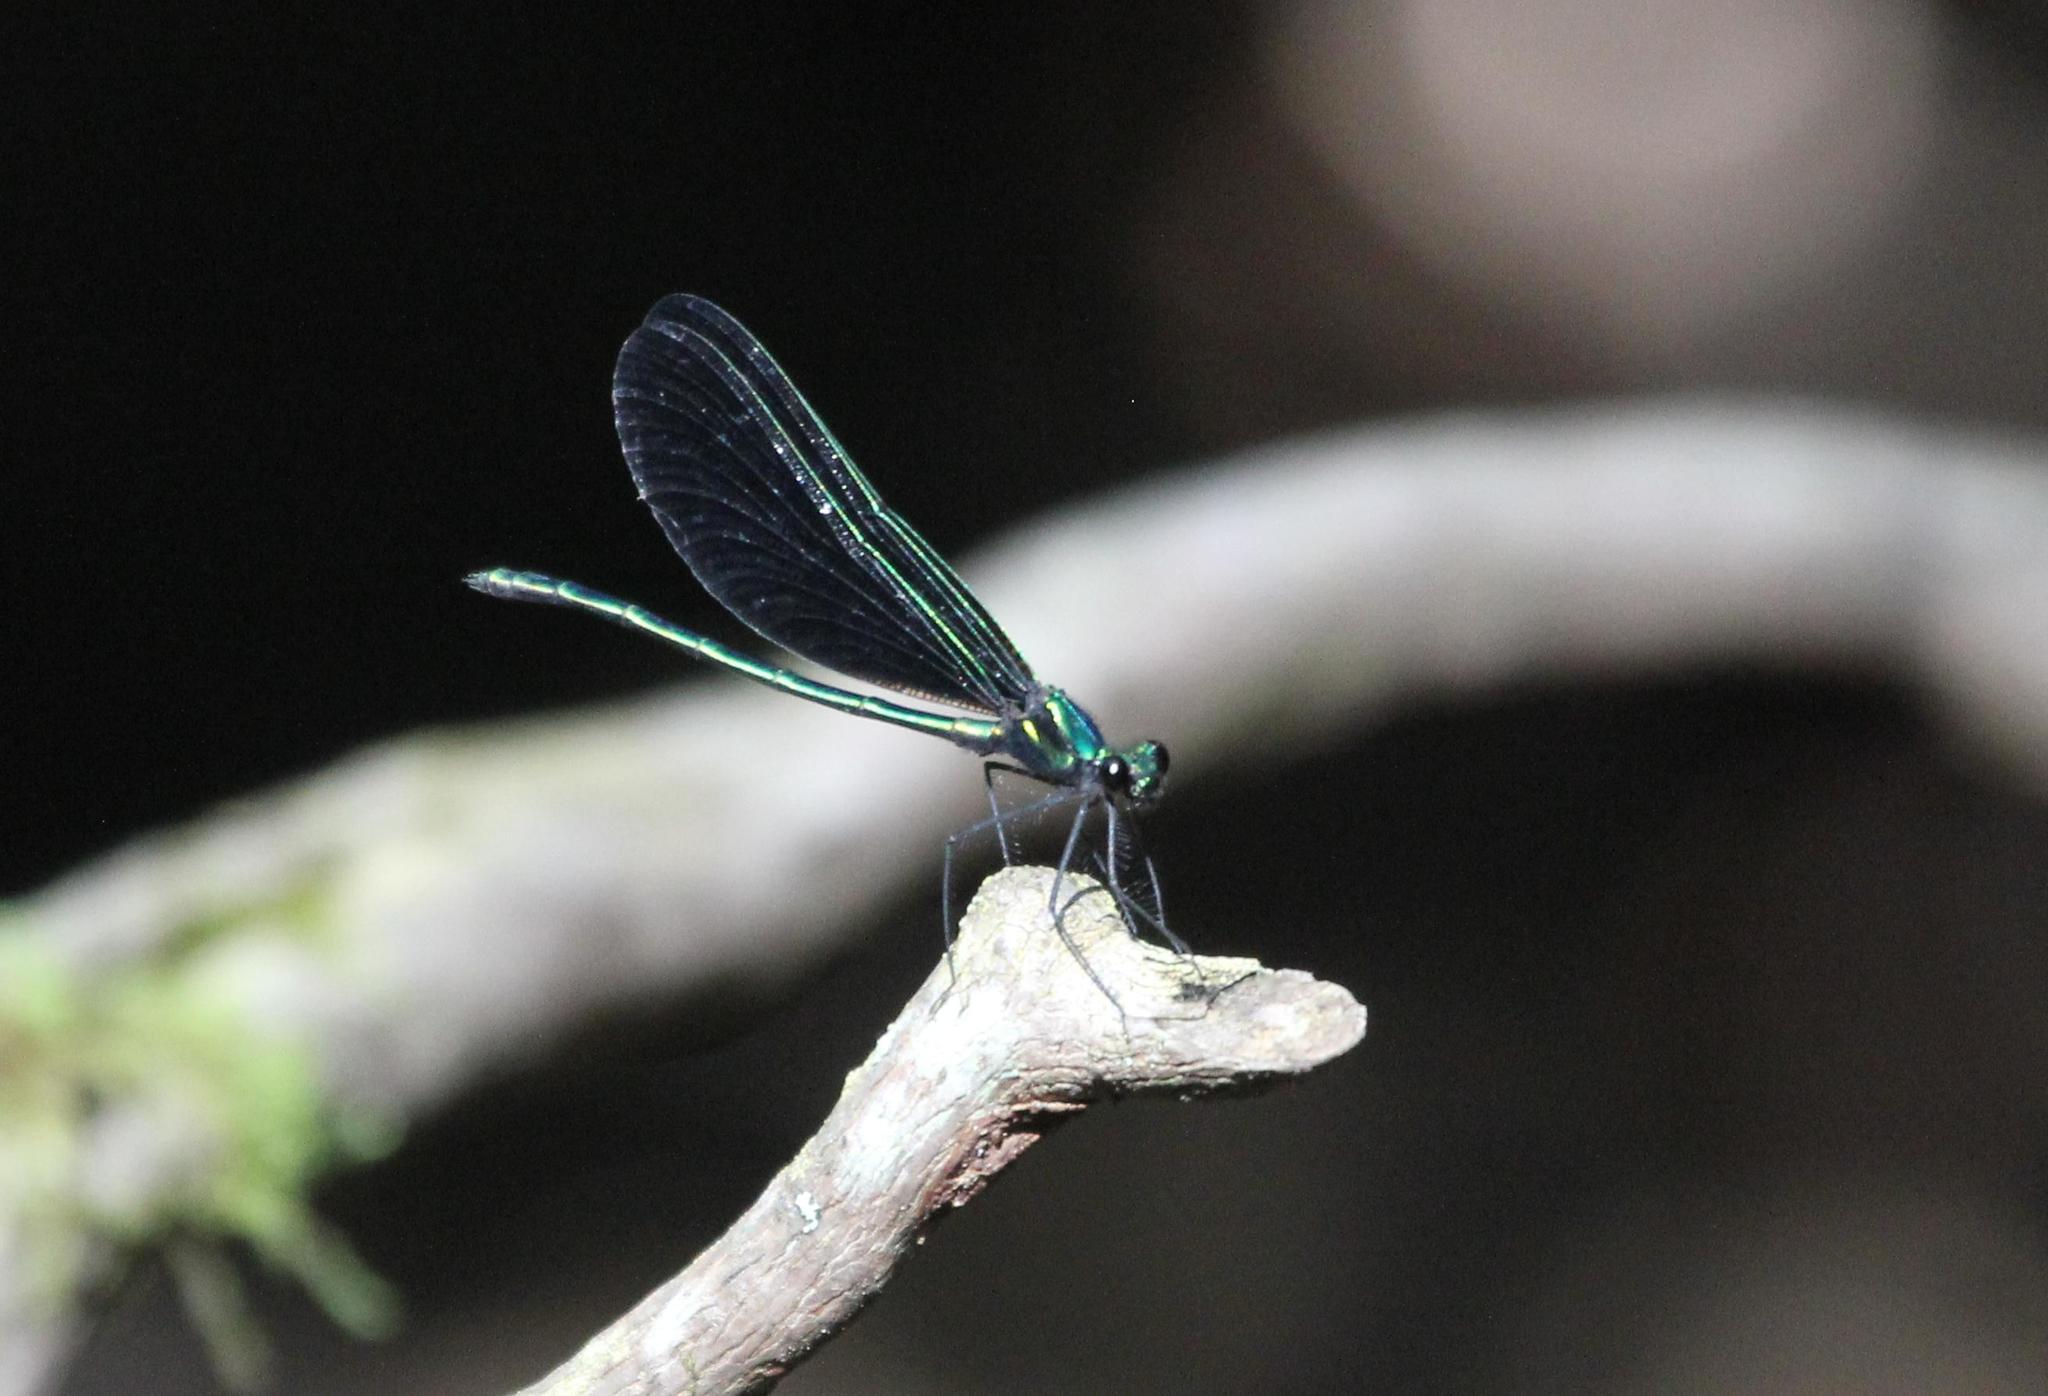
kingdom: Animalia
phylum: Arthropoda
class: Insecta
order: Odonata
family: Calopterygidae
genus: Calopteryx
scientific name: Calopteryx maculata
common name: Ebony jewelwing
